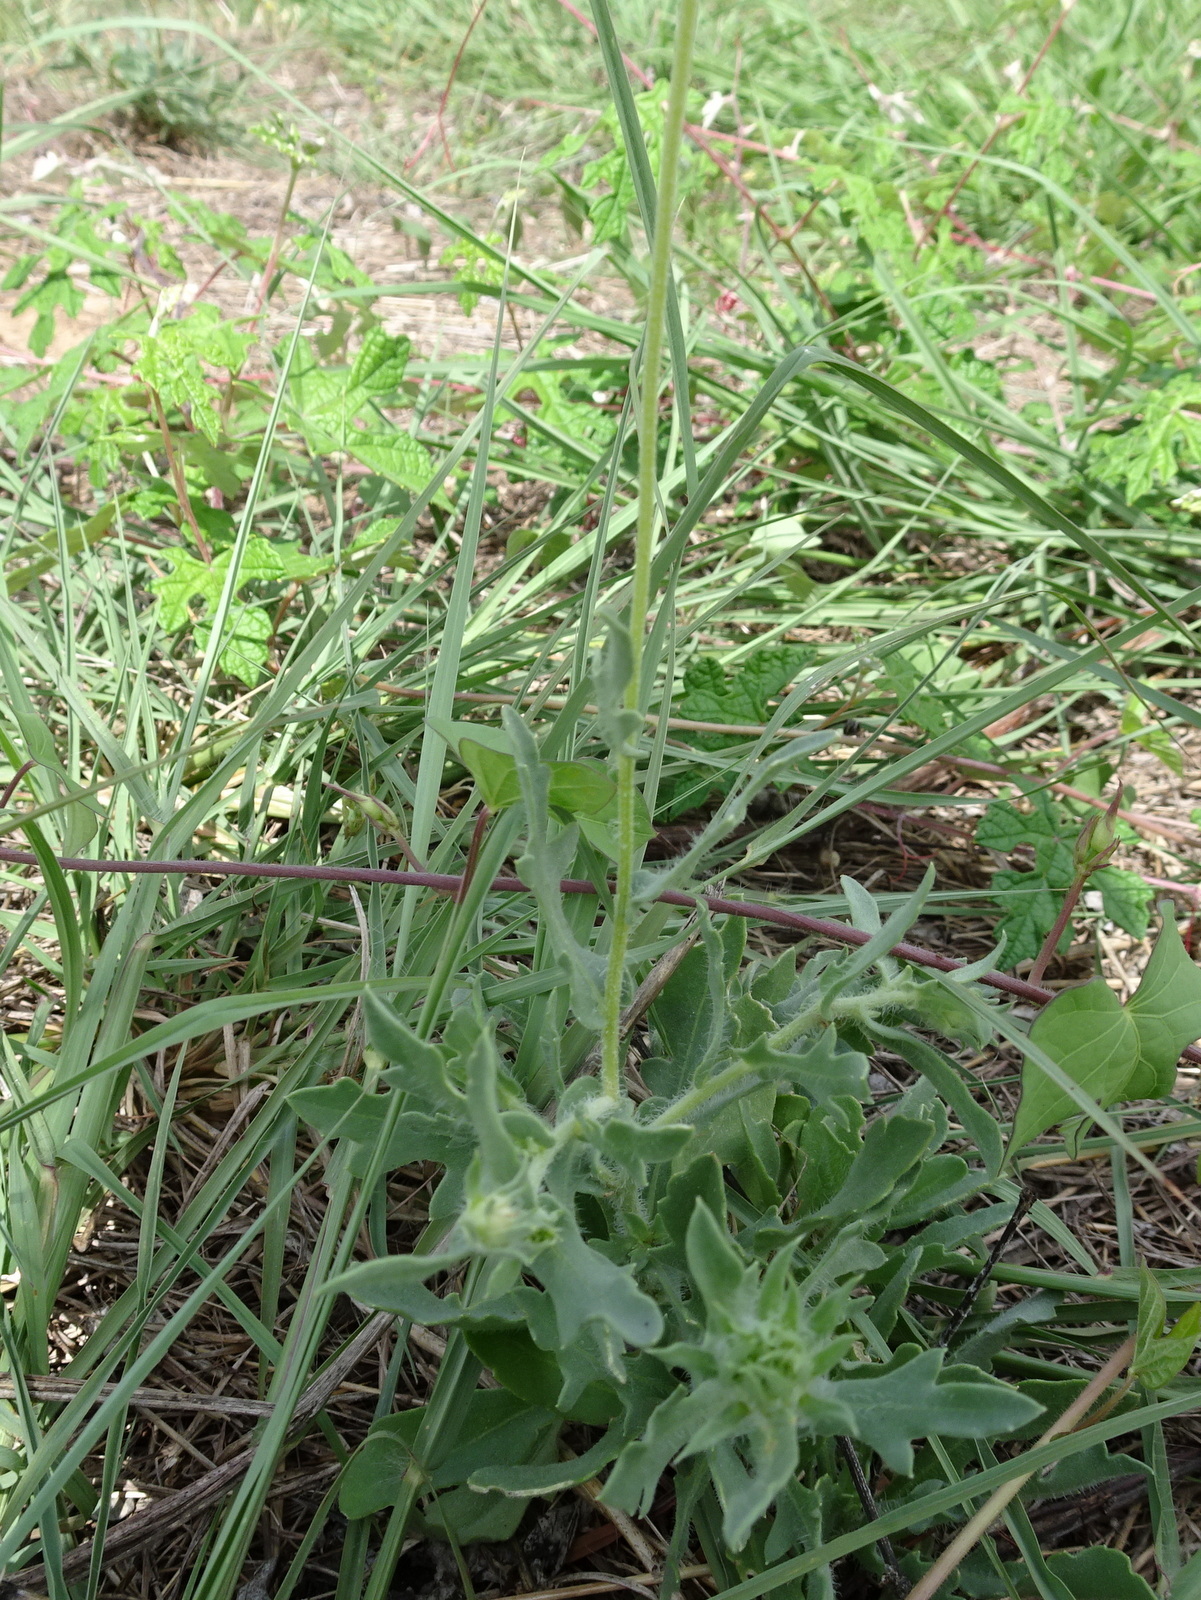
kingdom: Plantae
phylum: Tracheophyta
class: Magnoliopsida
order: Asterales
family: Asteraceae
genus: Gaillardia
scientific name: Gaillardia pulchella
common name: Firewheel
